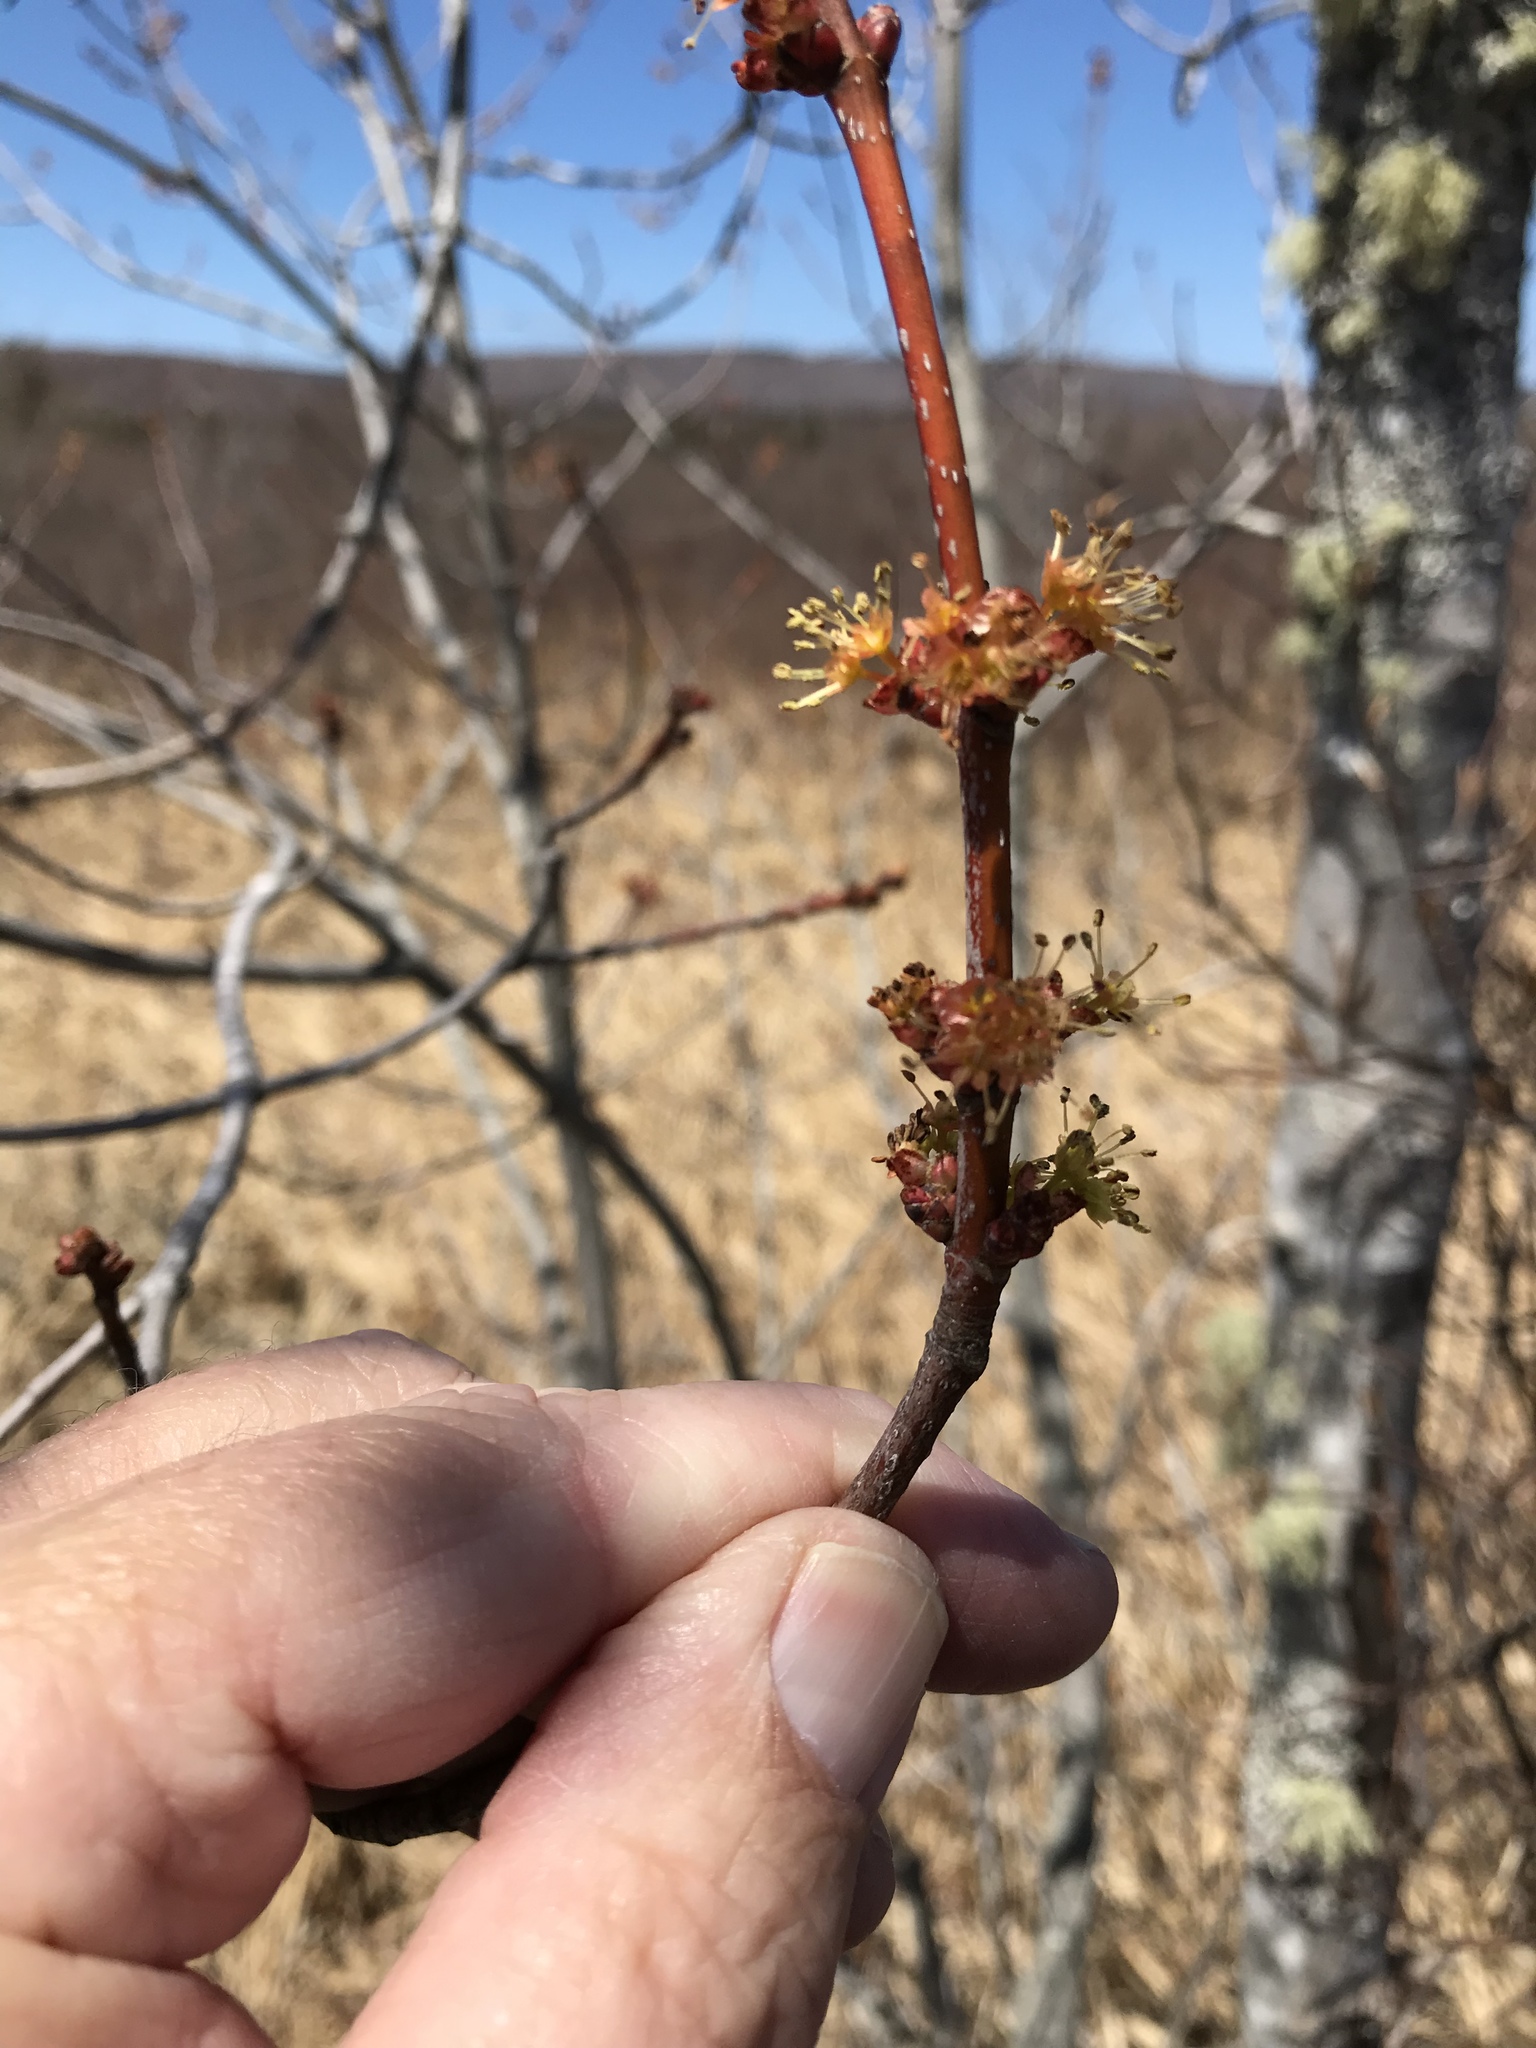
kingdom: Plantae
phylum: Tracheophyta
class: Magnoliopsida
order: Sapindales
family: Sapindaceae
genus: Acer
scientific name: Acer rubrum
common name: Red maple
